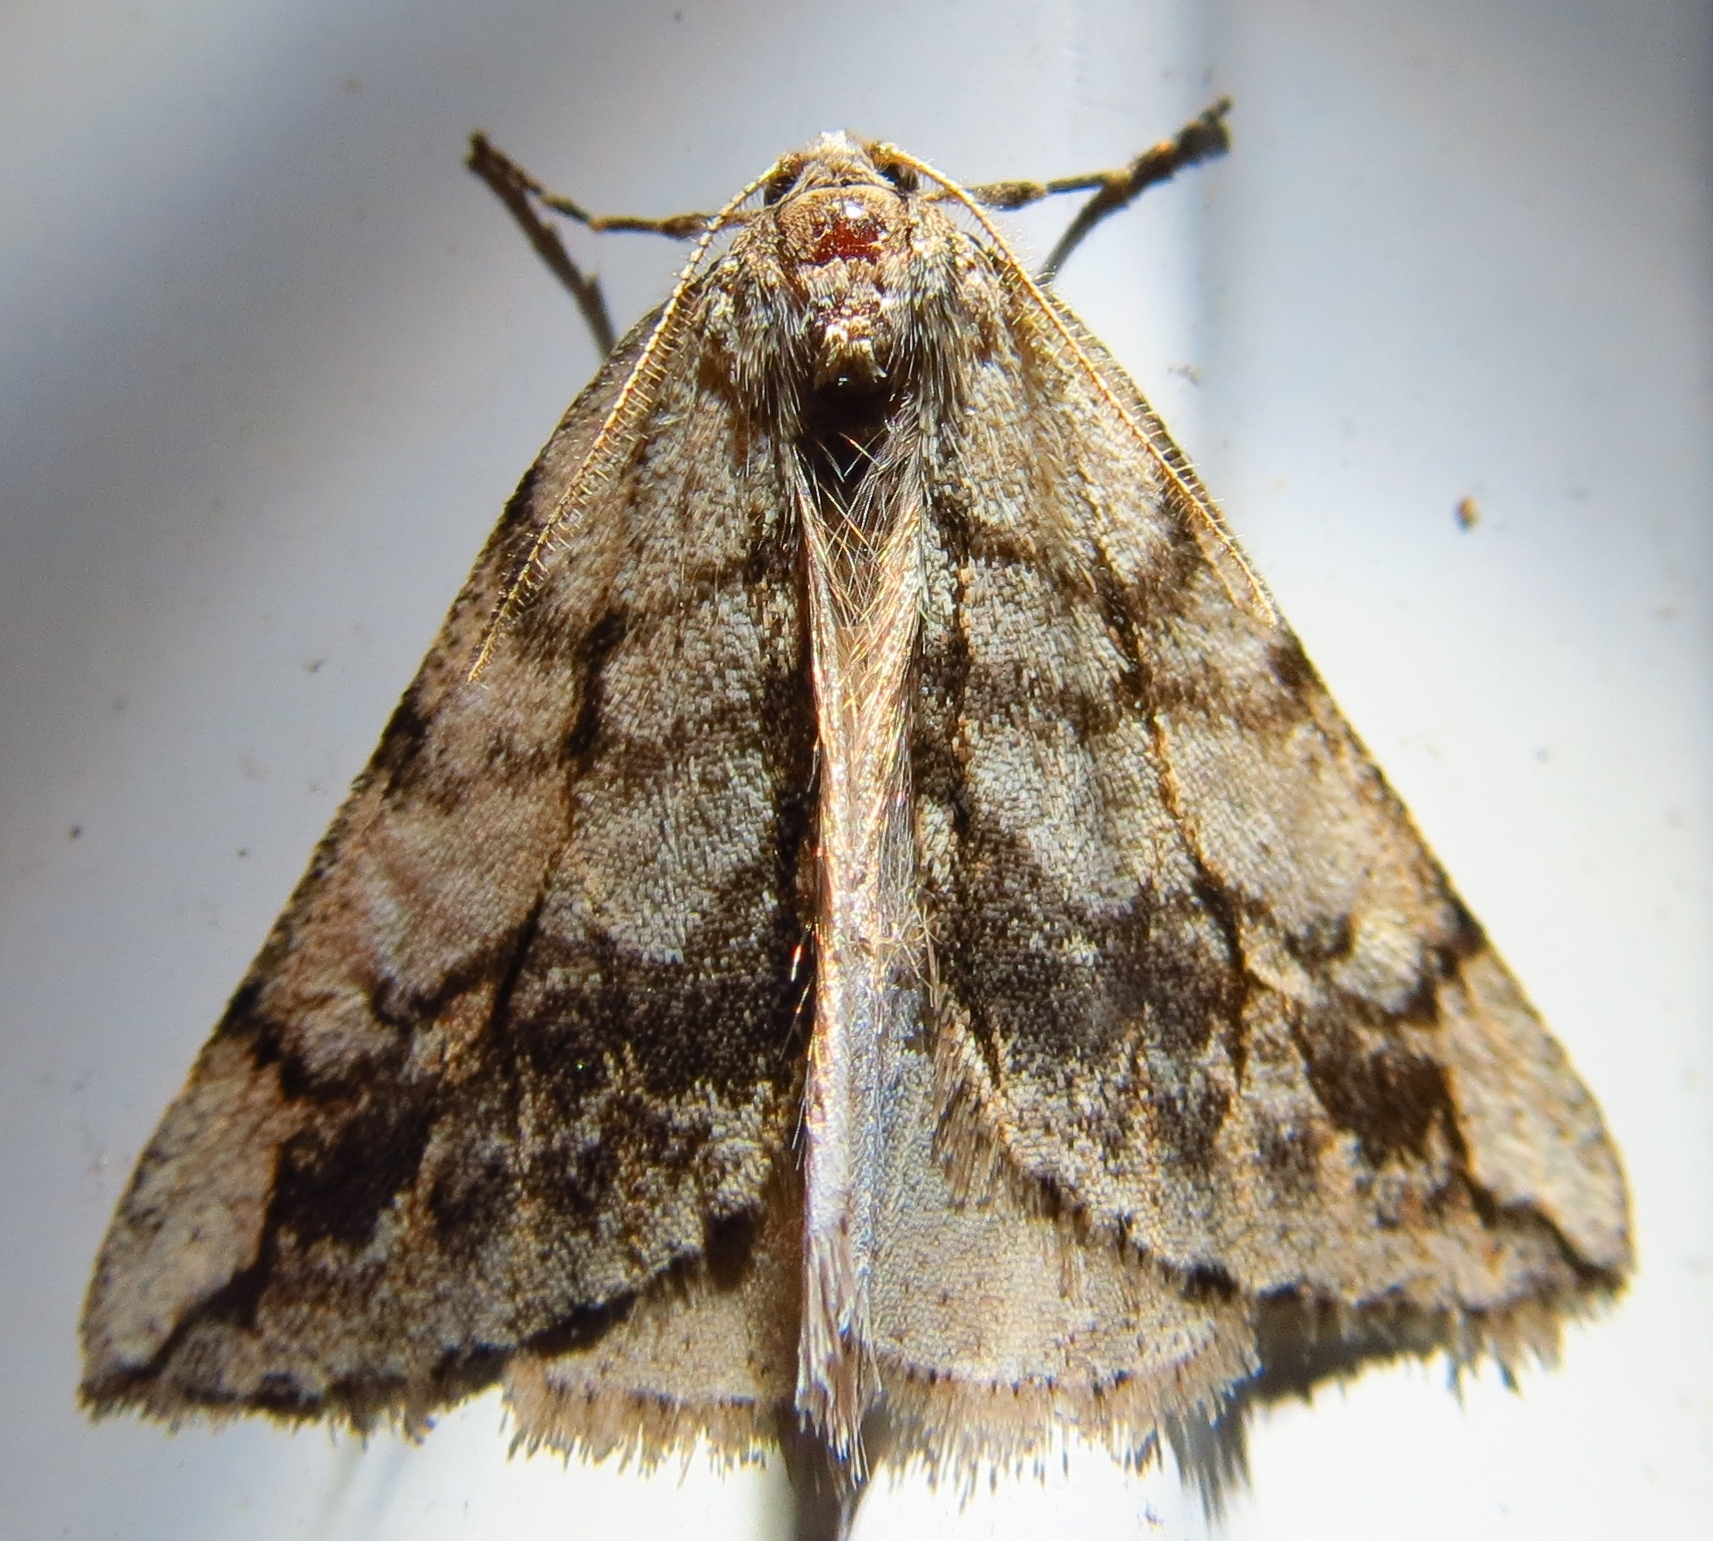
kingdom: Animalia
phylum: Arthropoda
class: Insecta
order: Lepidoptera
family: Geometridae
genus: Paleacrita
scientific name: Paleacrita vernata
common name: Spring cankerworm
